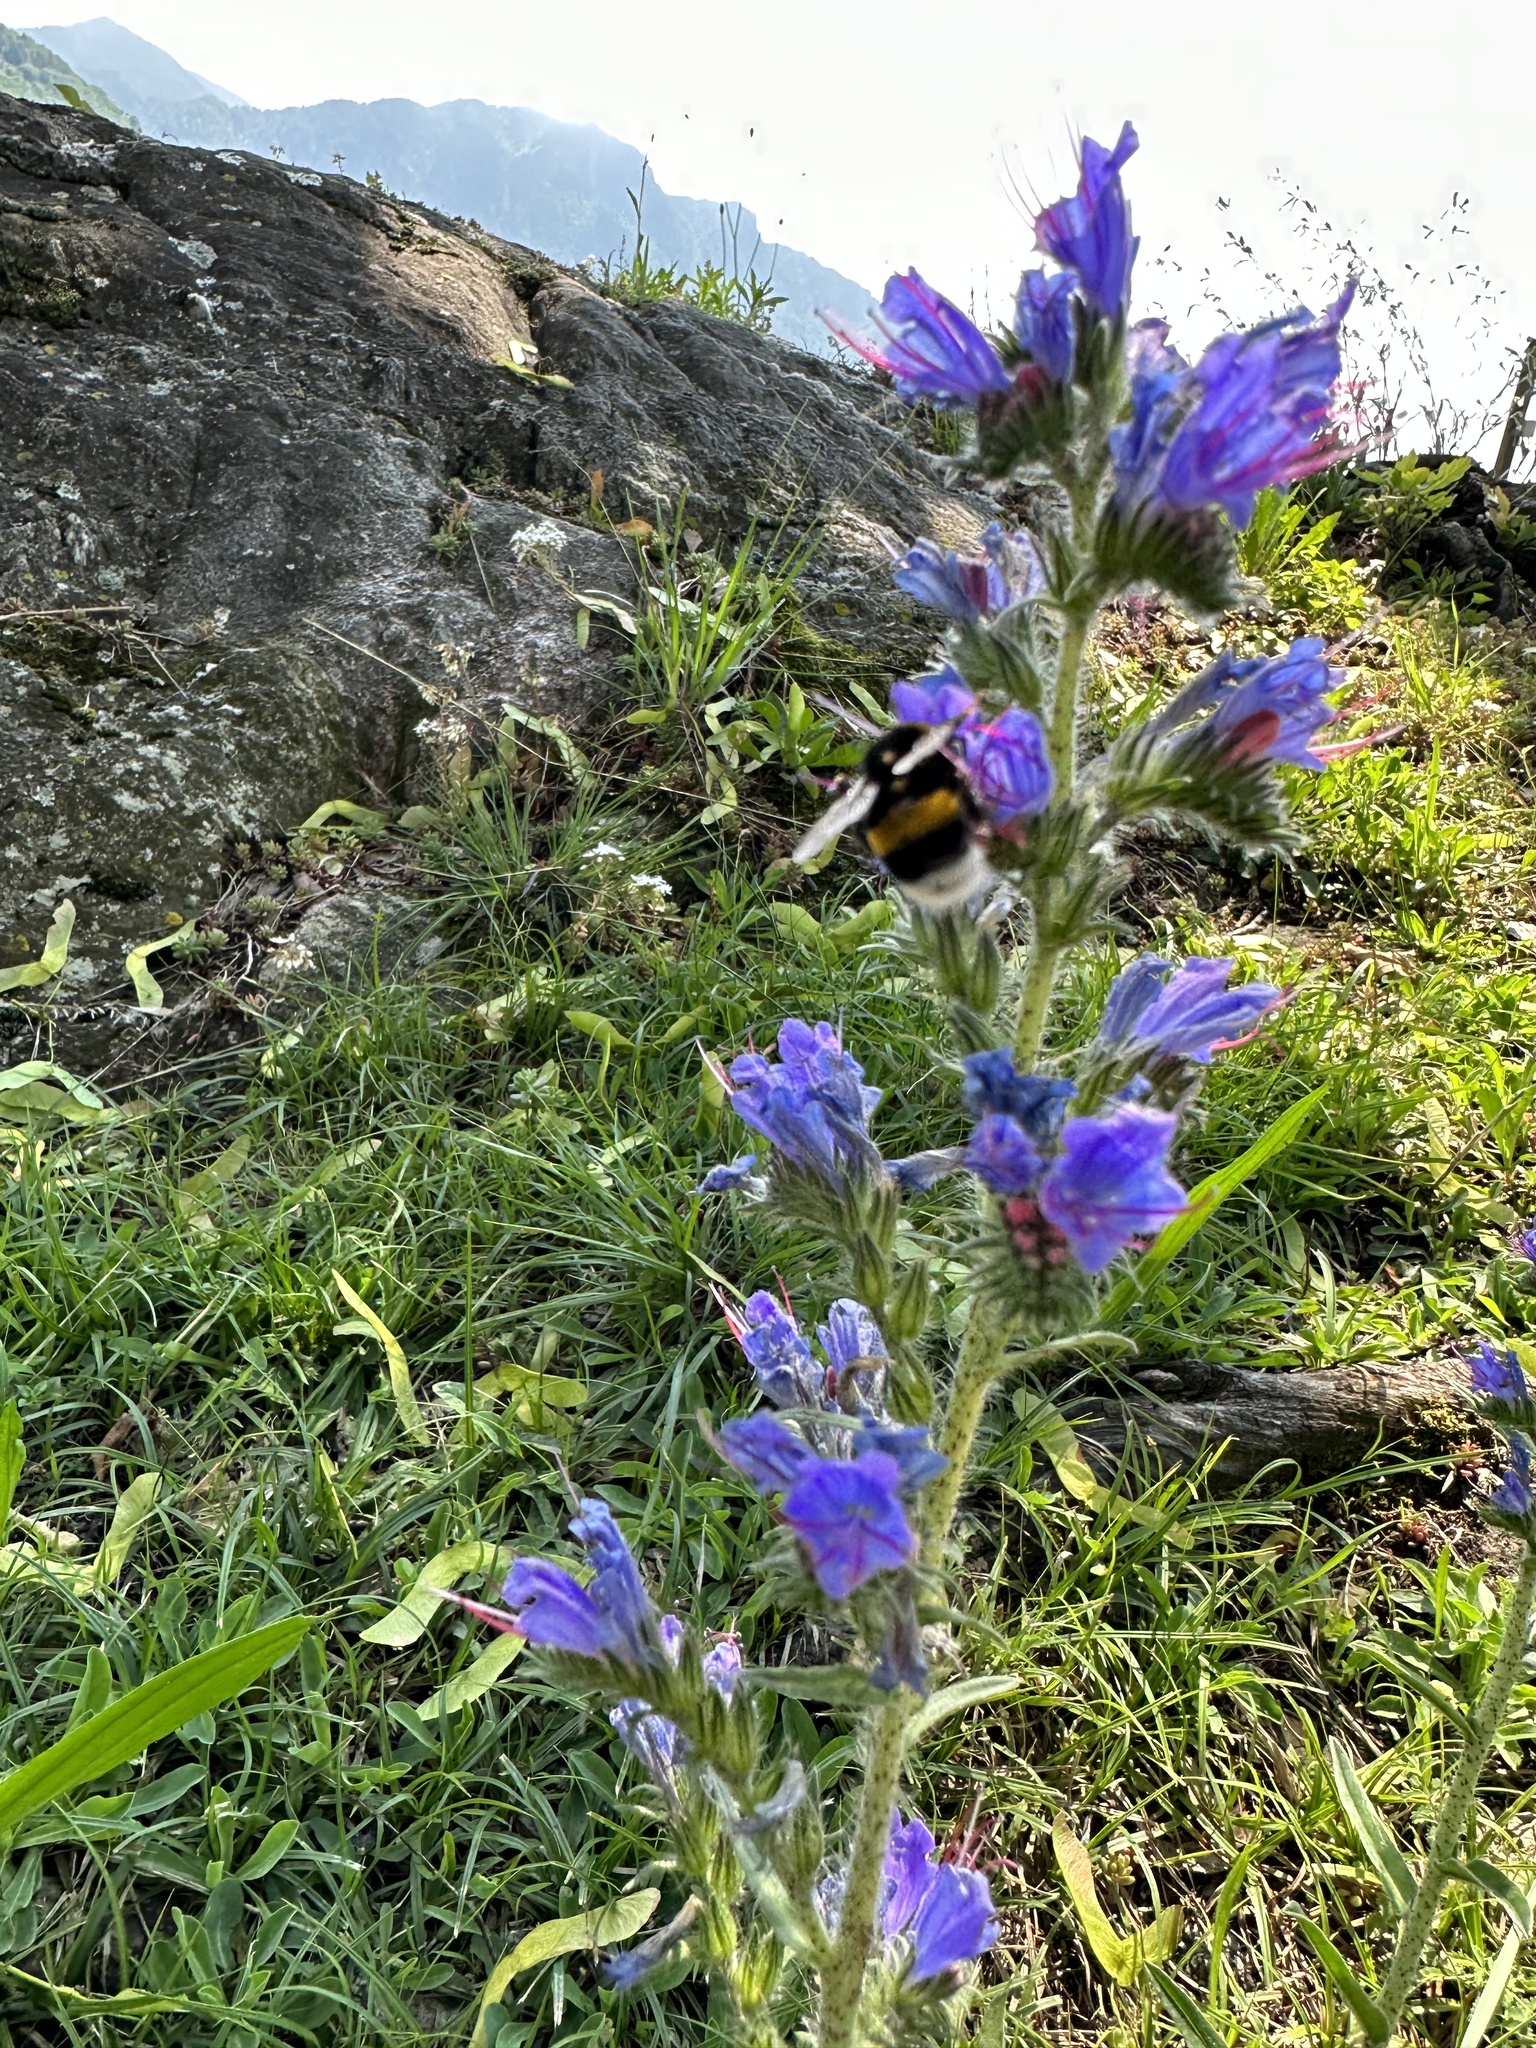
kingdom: Plantae
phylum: Tracheophyta
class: Magnoliopsida
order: Boraginales
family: Boraginaceae
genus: Echium
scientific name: Echium vulgare
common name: Common viper's bugloss
